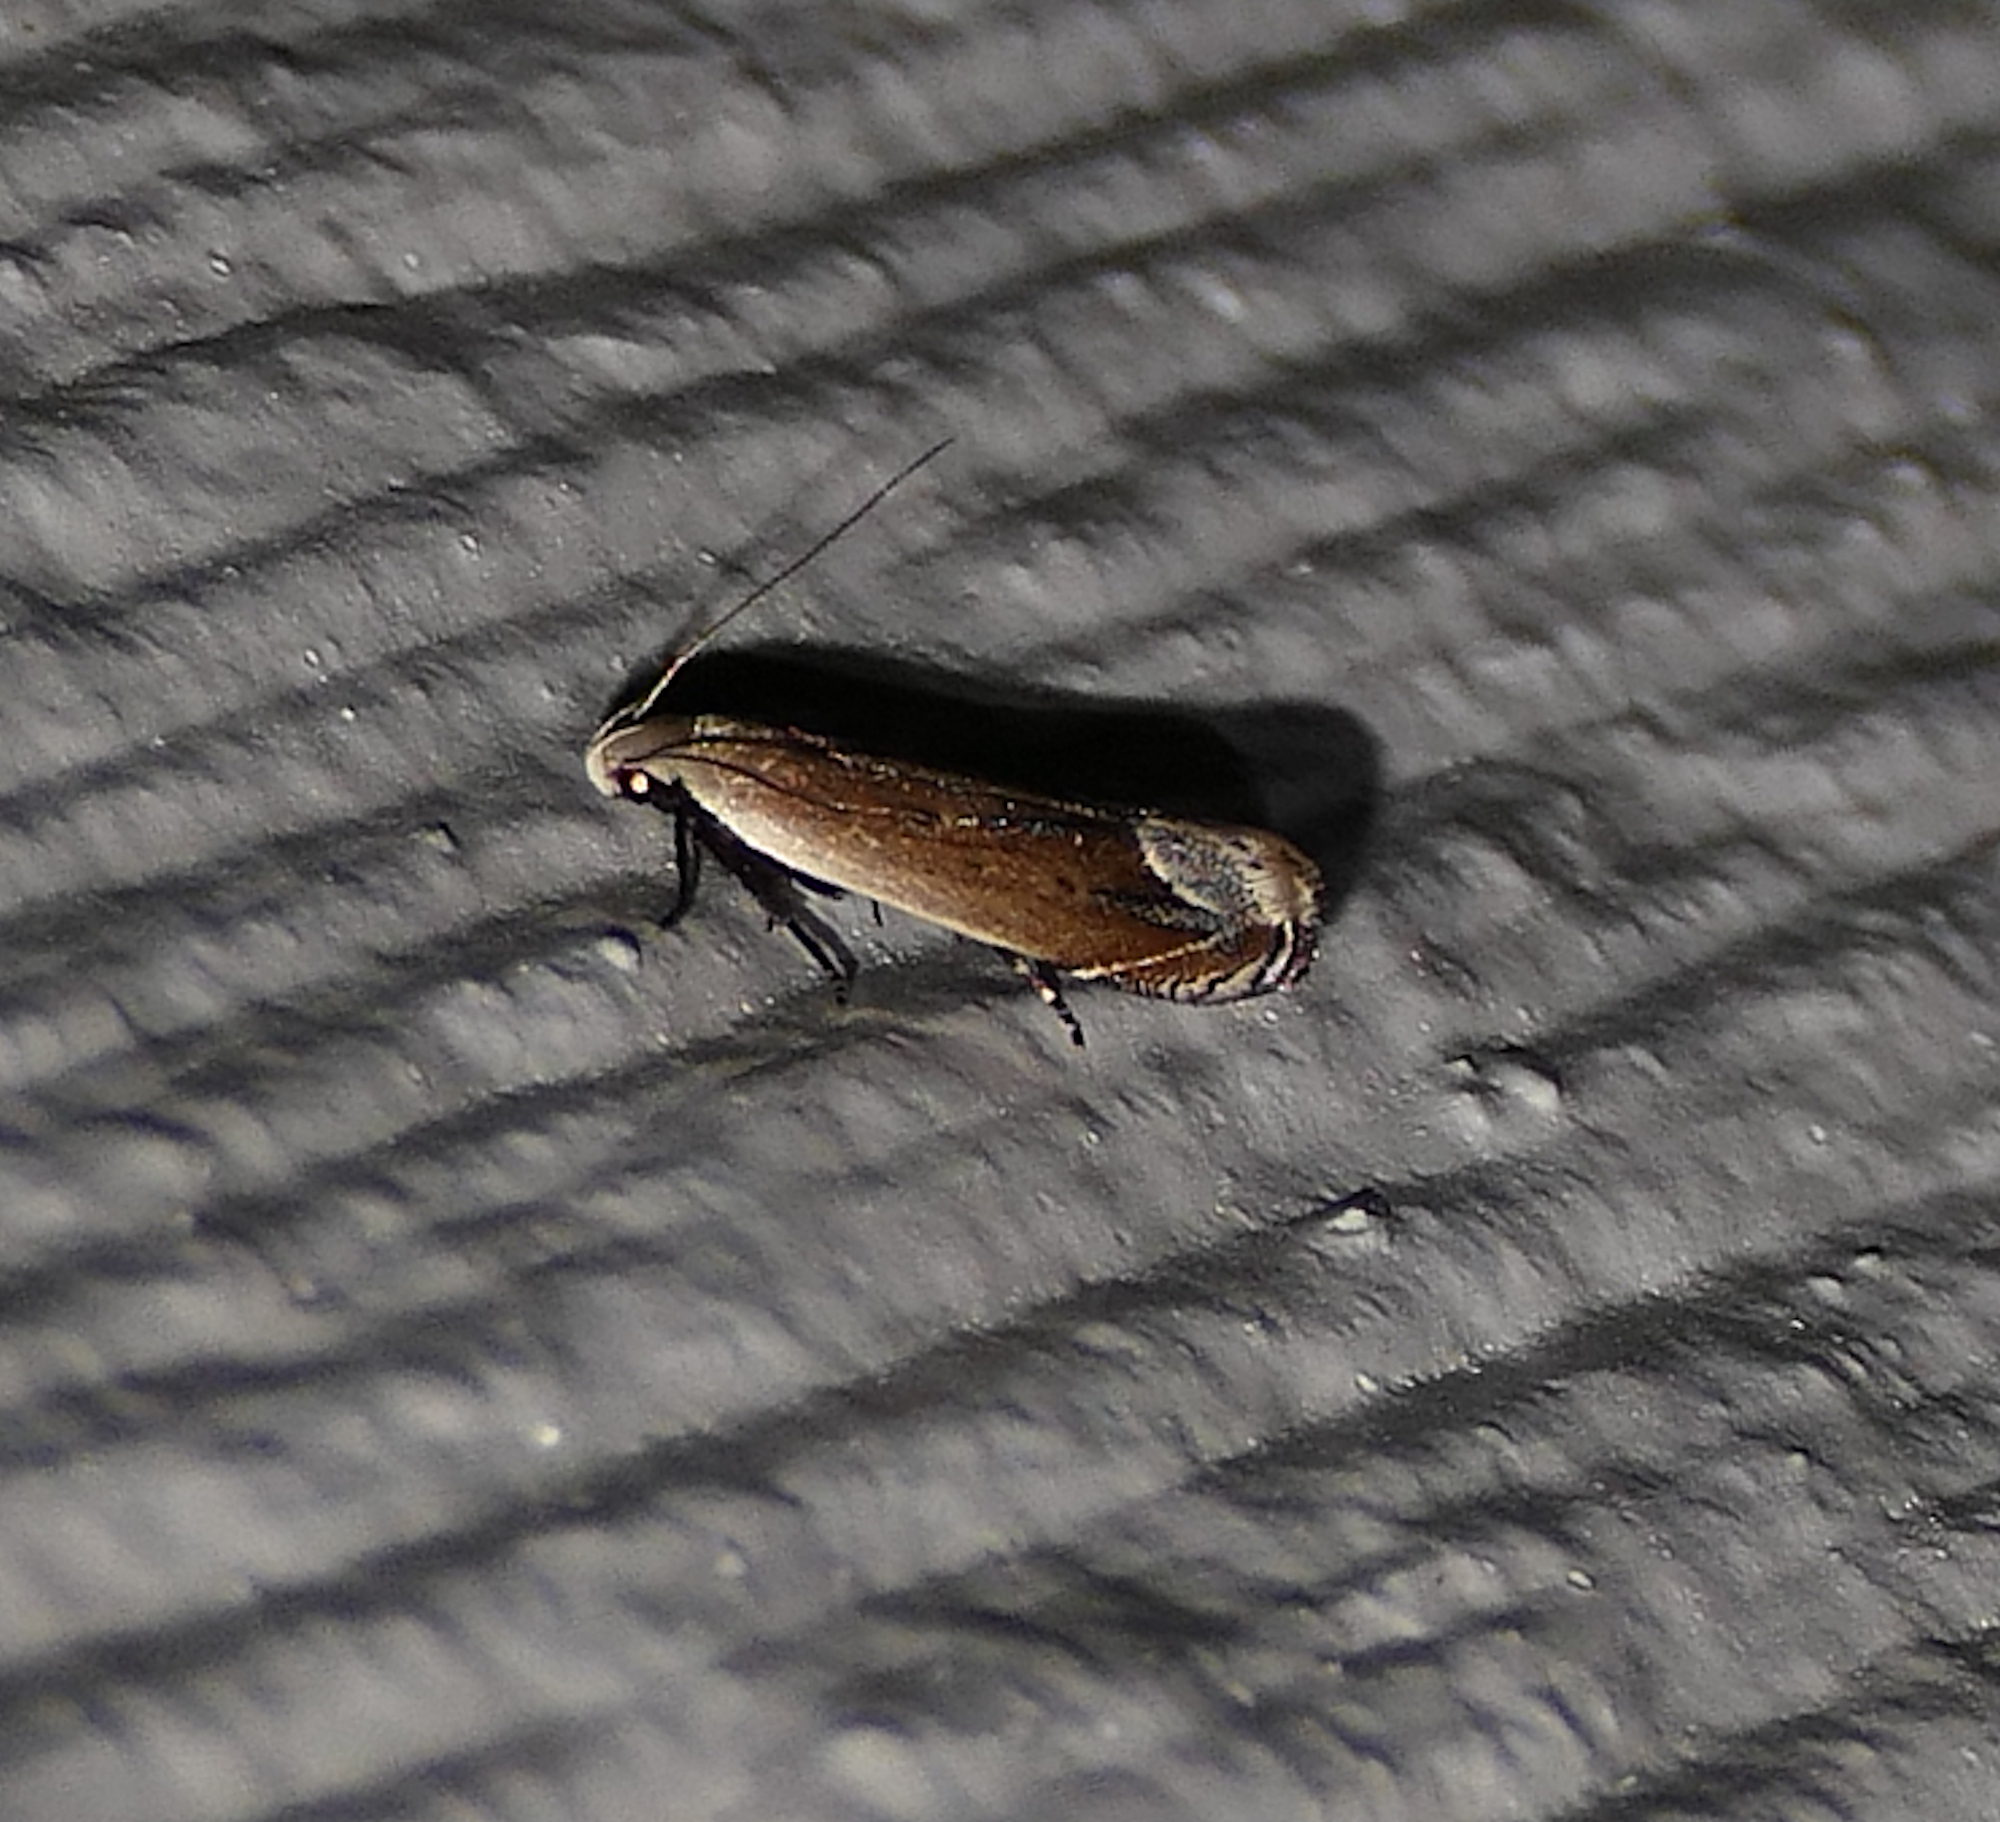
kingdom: Animalia
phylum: Arthropoda
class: Insecta
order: Lepidoptera
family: Gelechiidae
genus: Anacampsis
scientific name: Anacampsis paltodoriella
